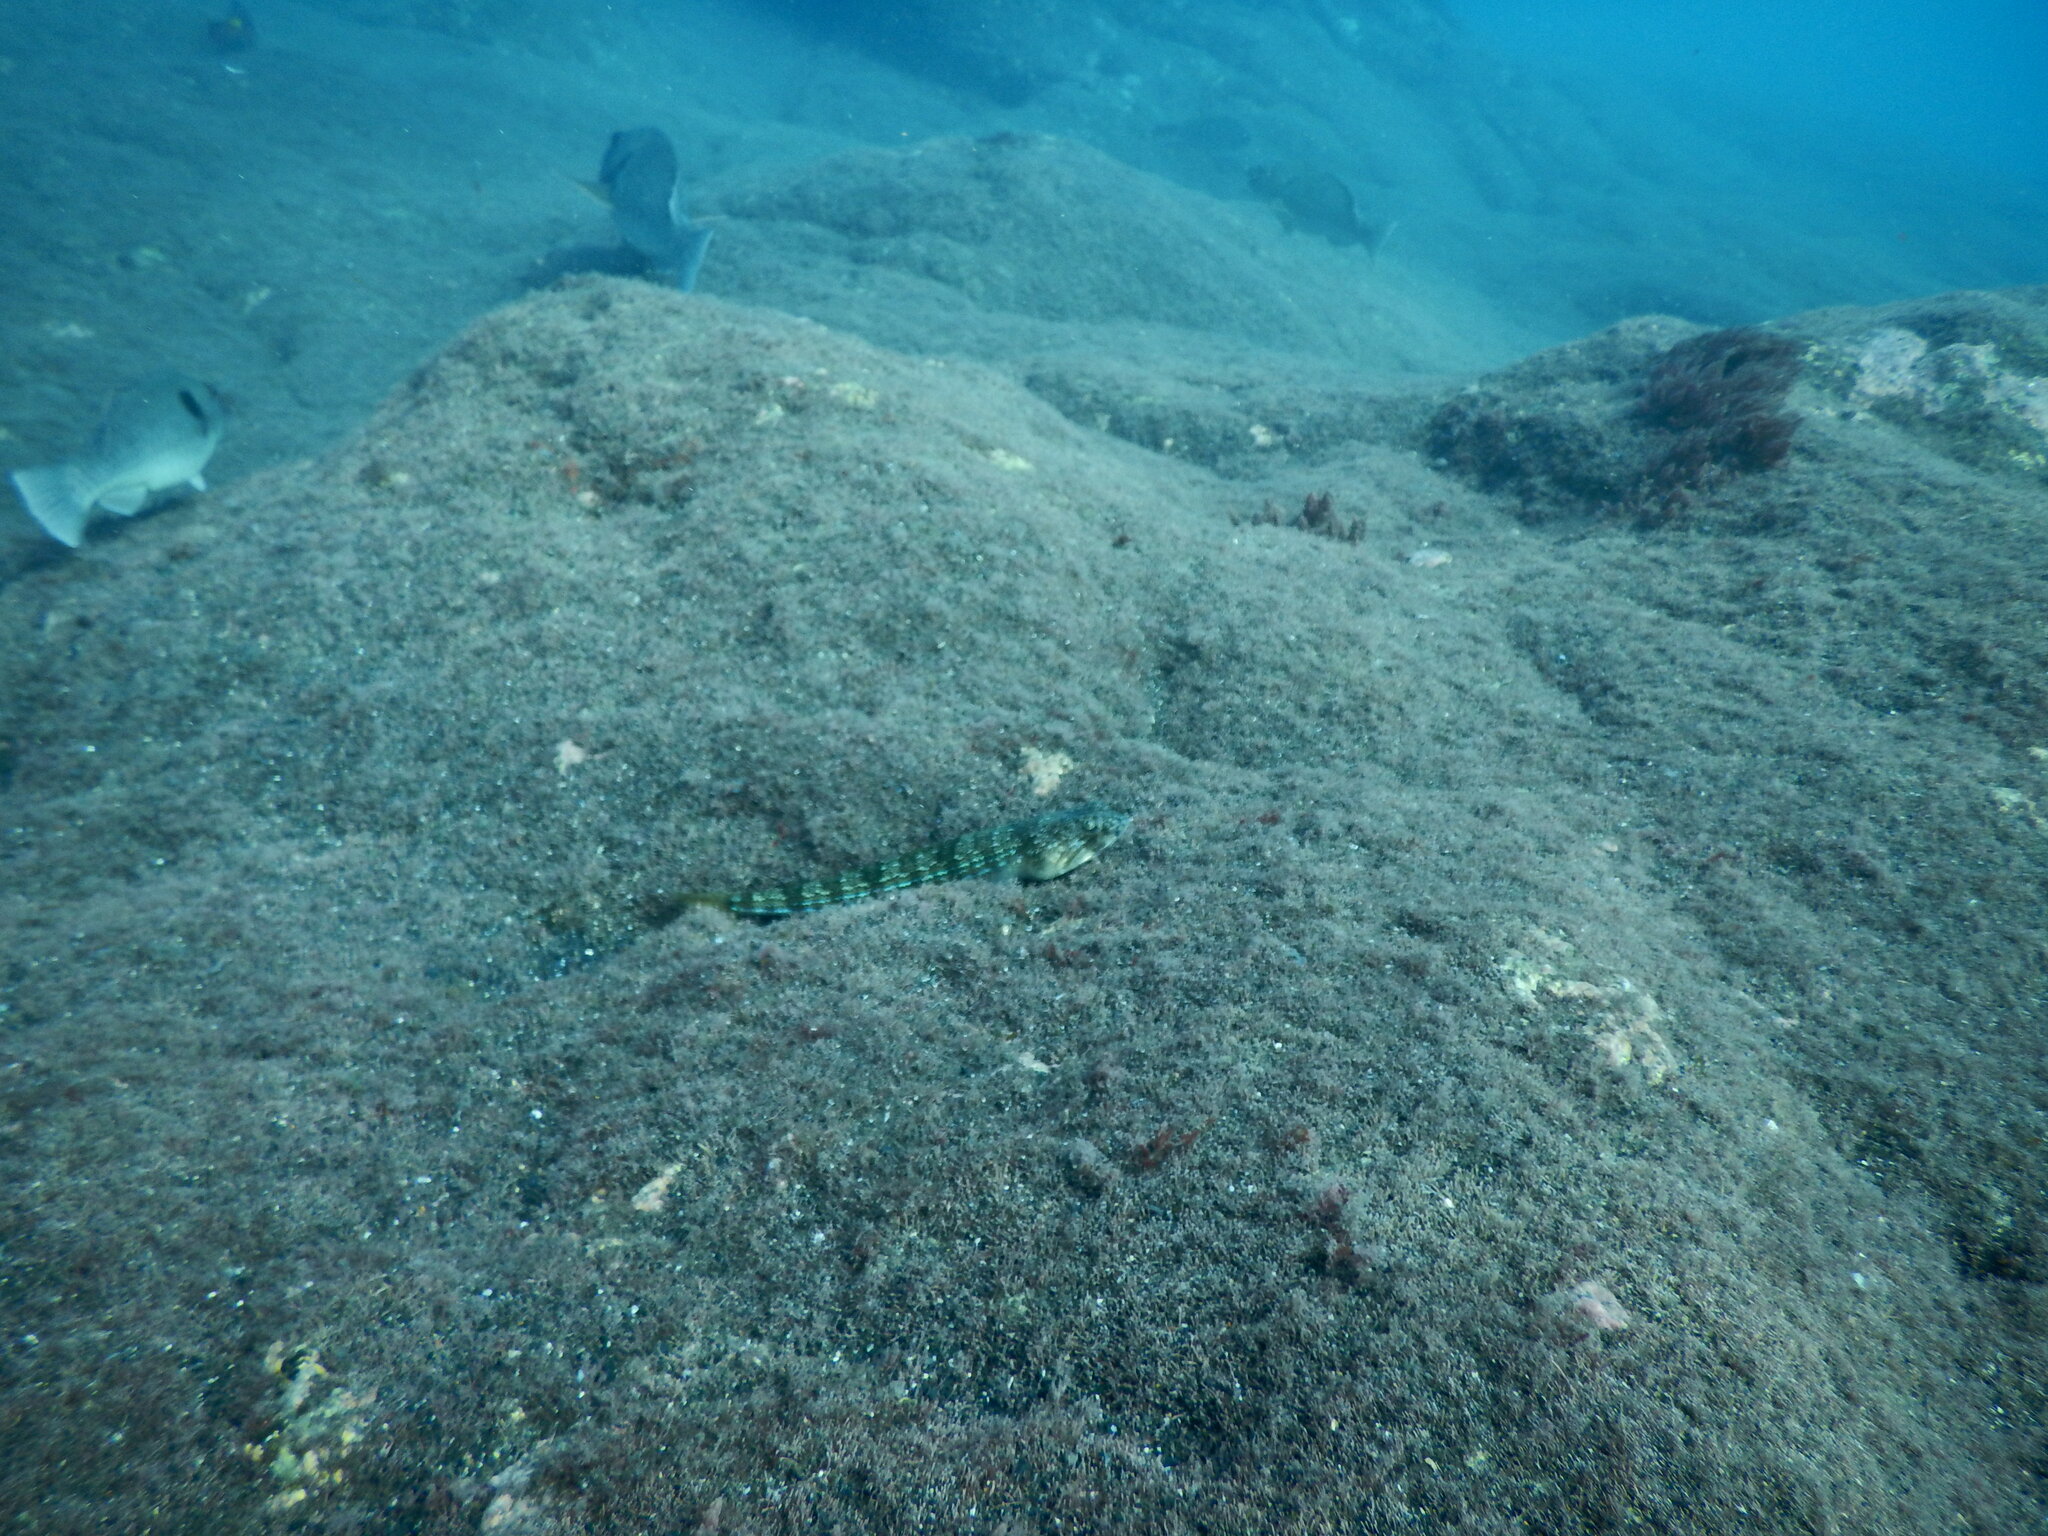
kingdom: Animalia
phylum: Chordata
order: Aulopiformes
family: Synodontidae
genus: Synodus
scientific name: Synodus saurus
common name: Atlantic lizardfish
